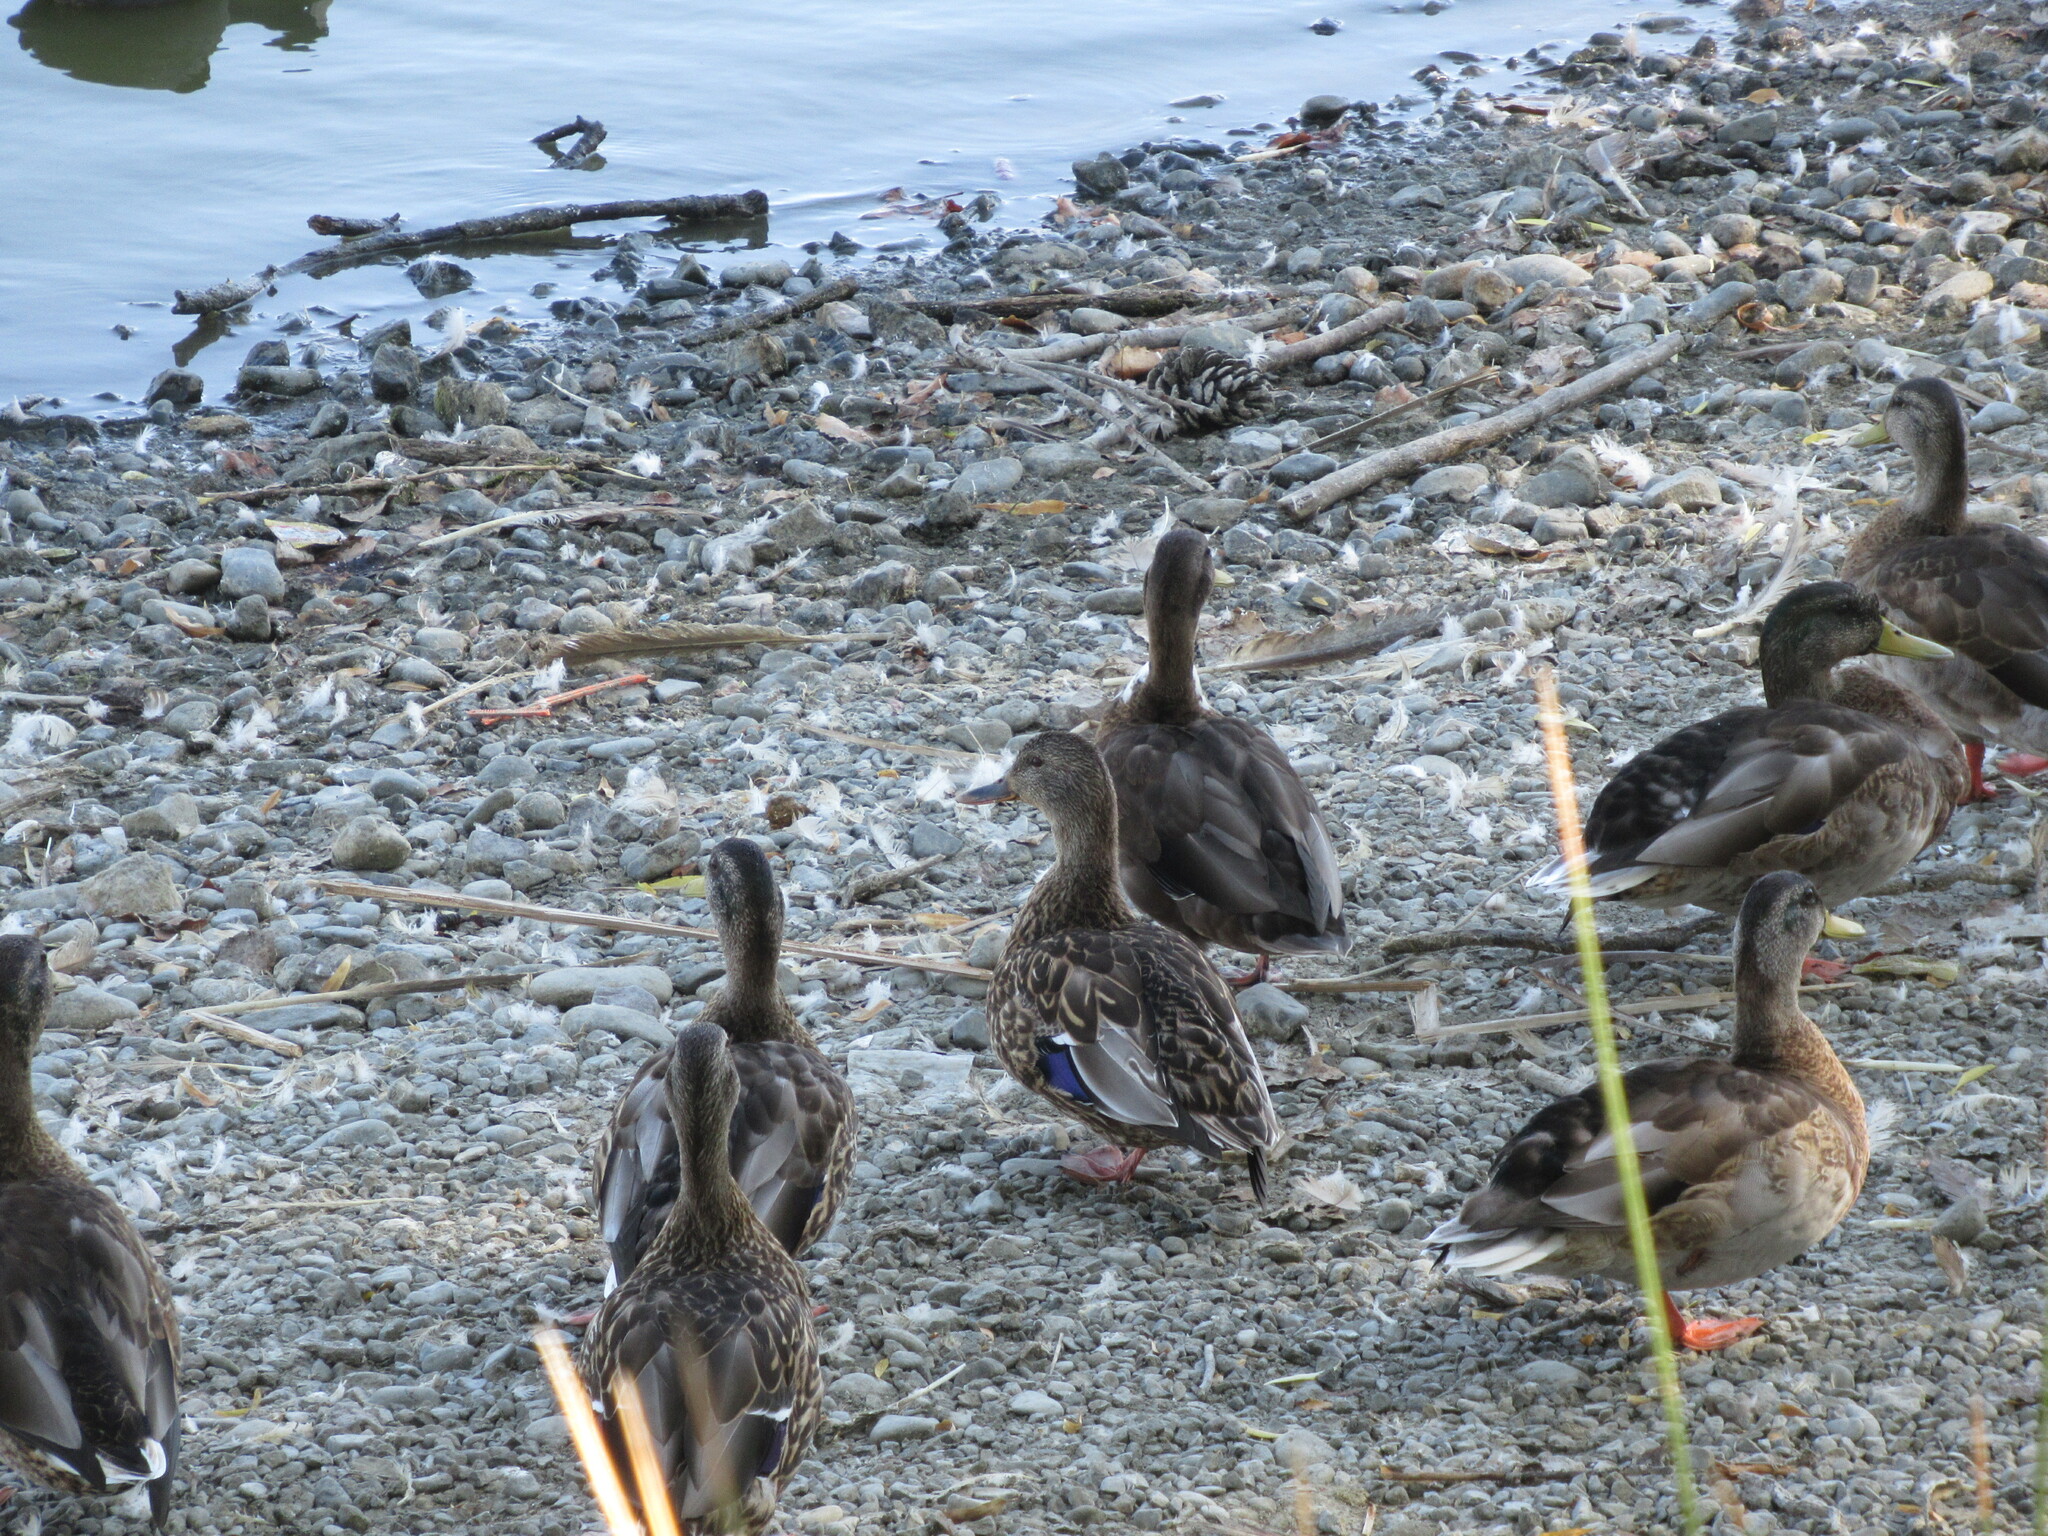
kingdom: Animalia
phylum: Chordata
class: Aves
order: Anseriformes
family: Anatidae
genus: Anas
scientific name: Anas platyrhynchos
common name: Mallard
